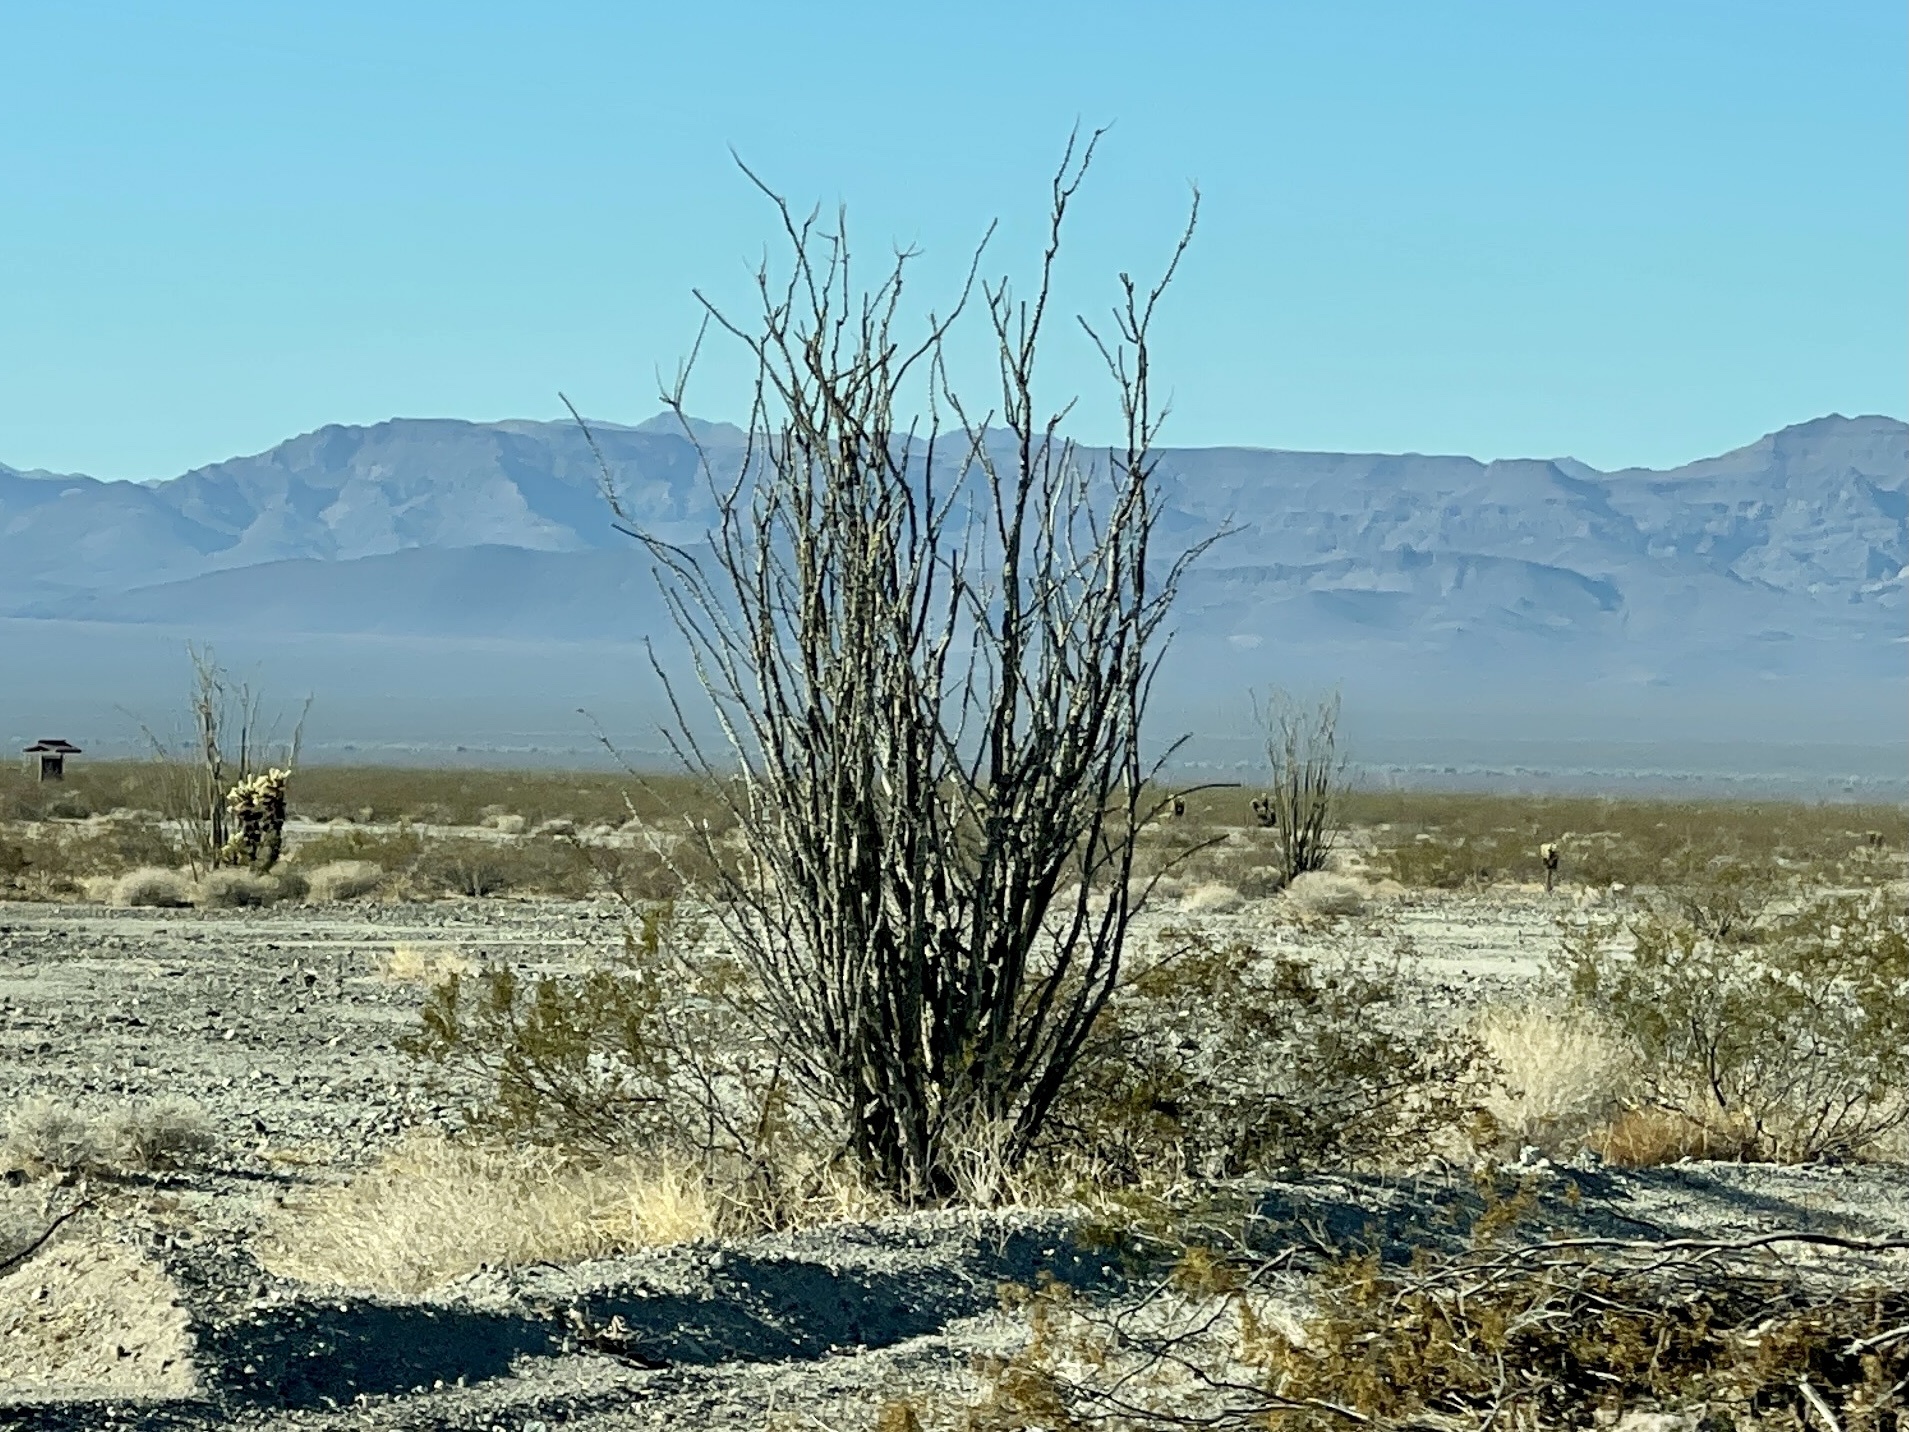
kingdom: Plantae
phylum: Tracheophyta
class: Magnoliopsida
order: Ericales
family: Fouquieriaceae
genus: Fouquieria
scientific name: Fouquieria splendens
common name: Vine-cactus
